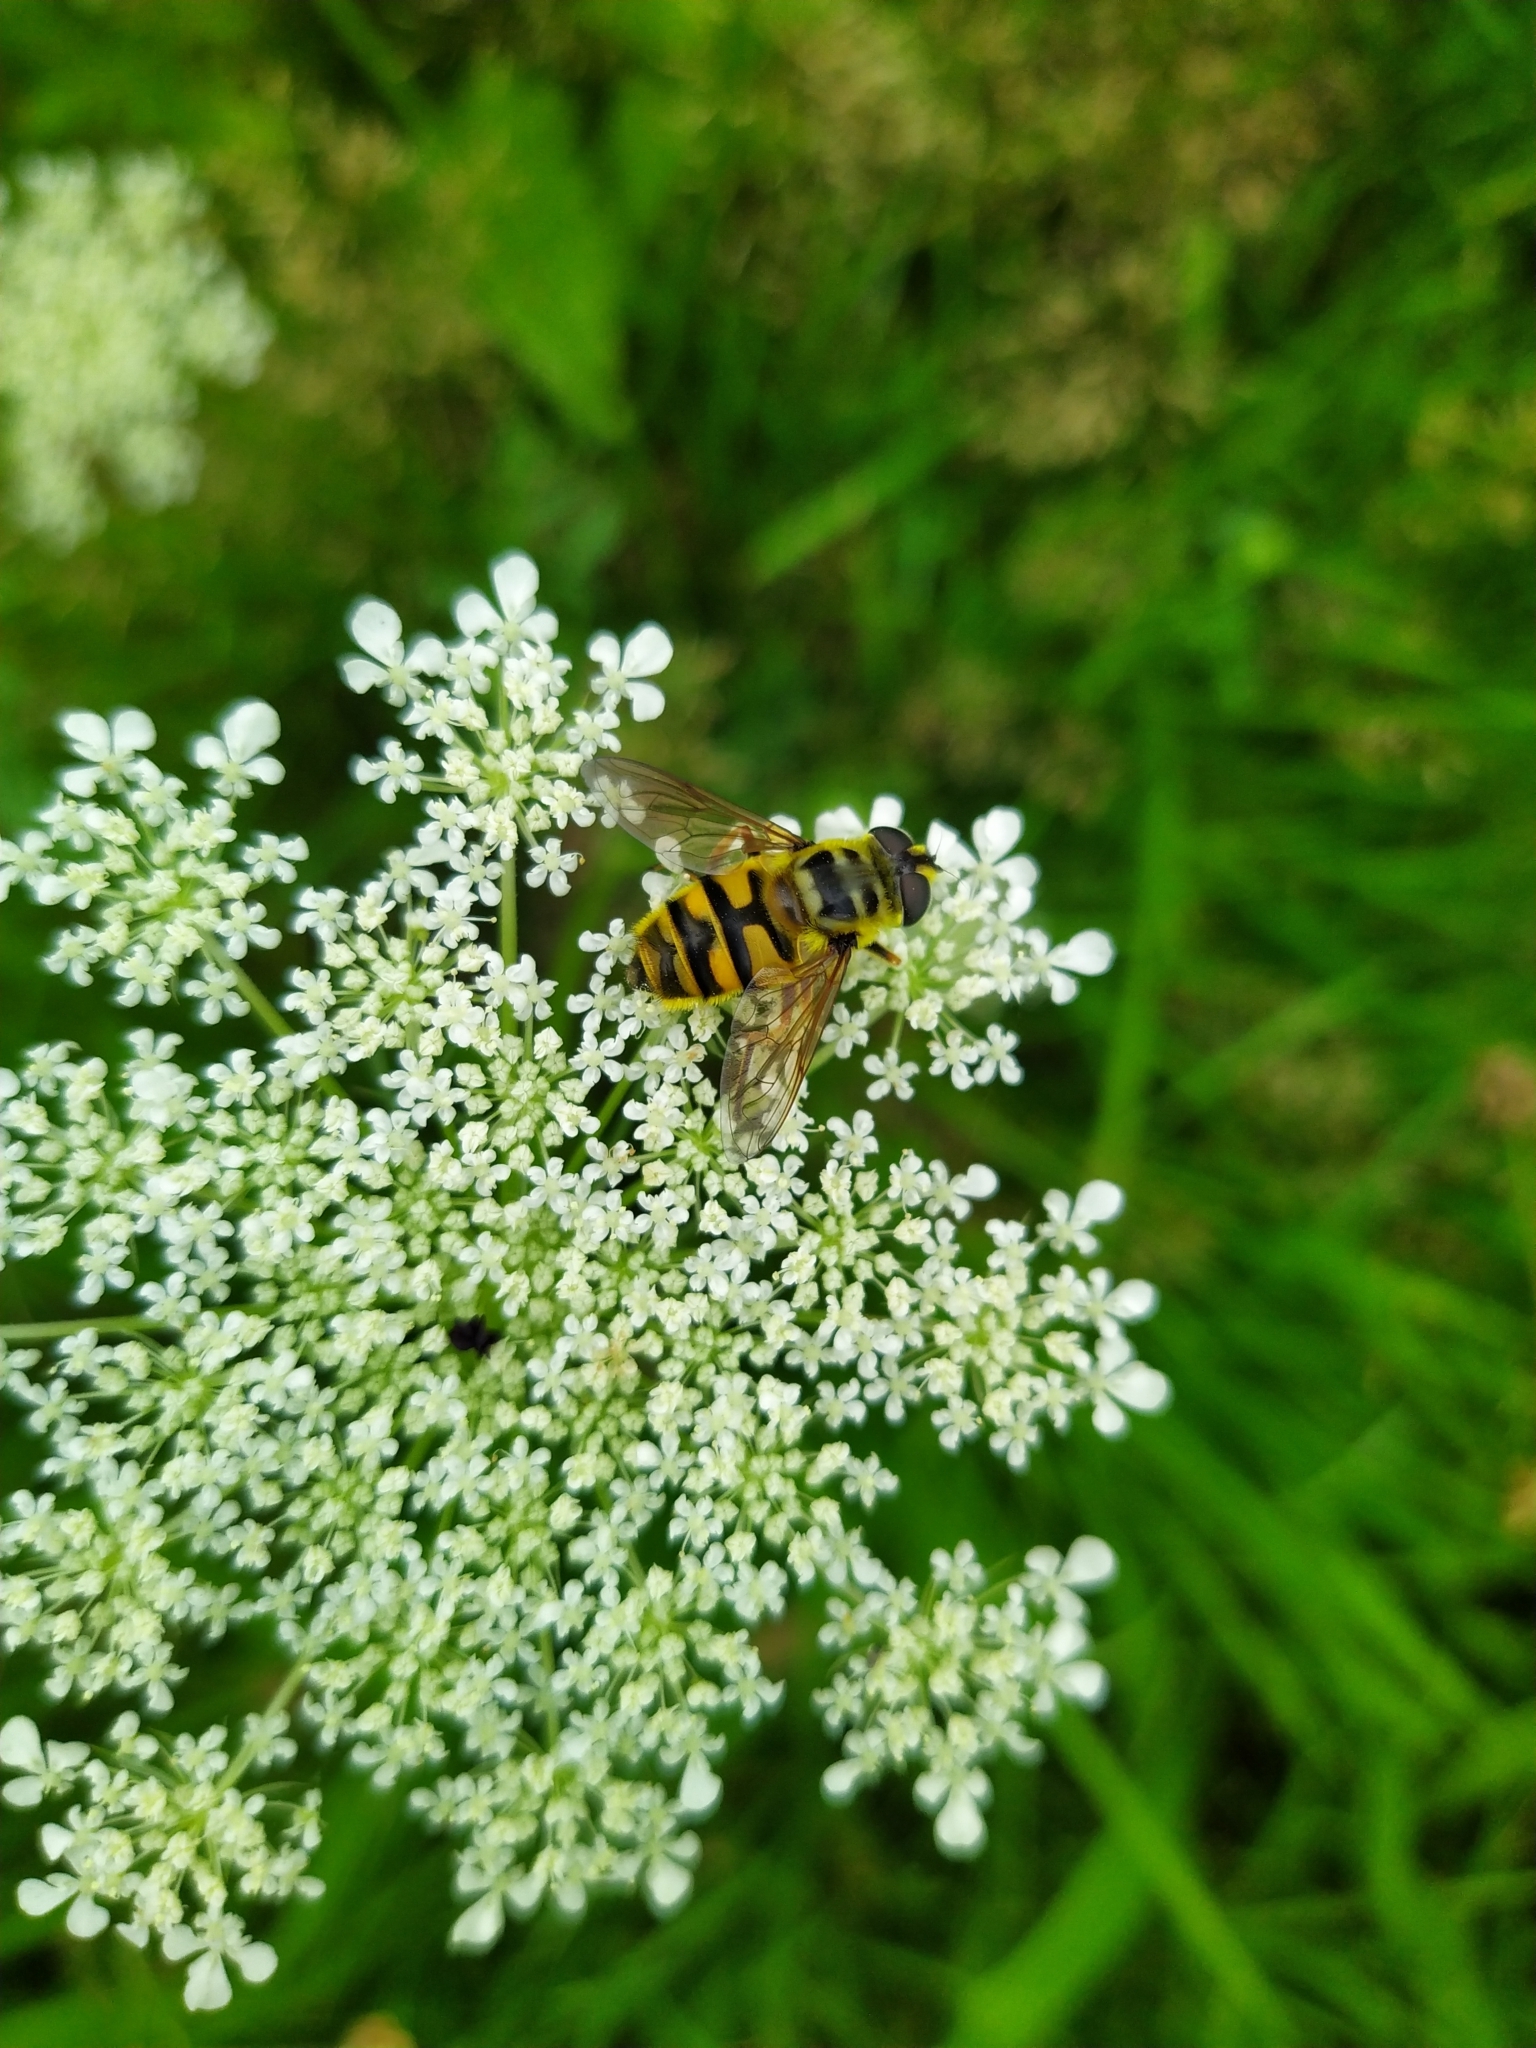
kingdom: Animalia
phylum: Arthropoda
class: Insecta
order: Diptera
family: Syrphidae
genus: Myathropa
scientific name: Myathropa florea
